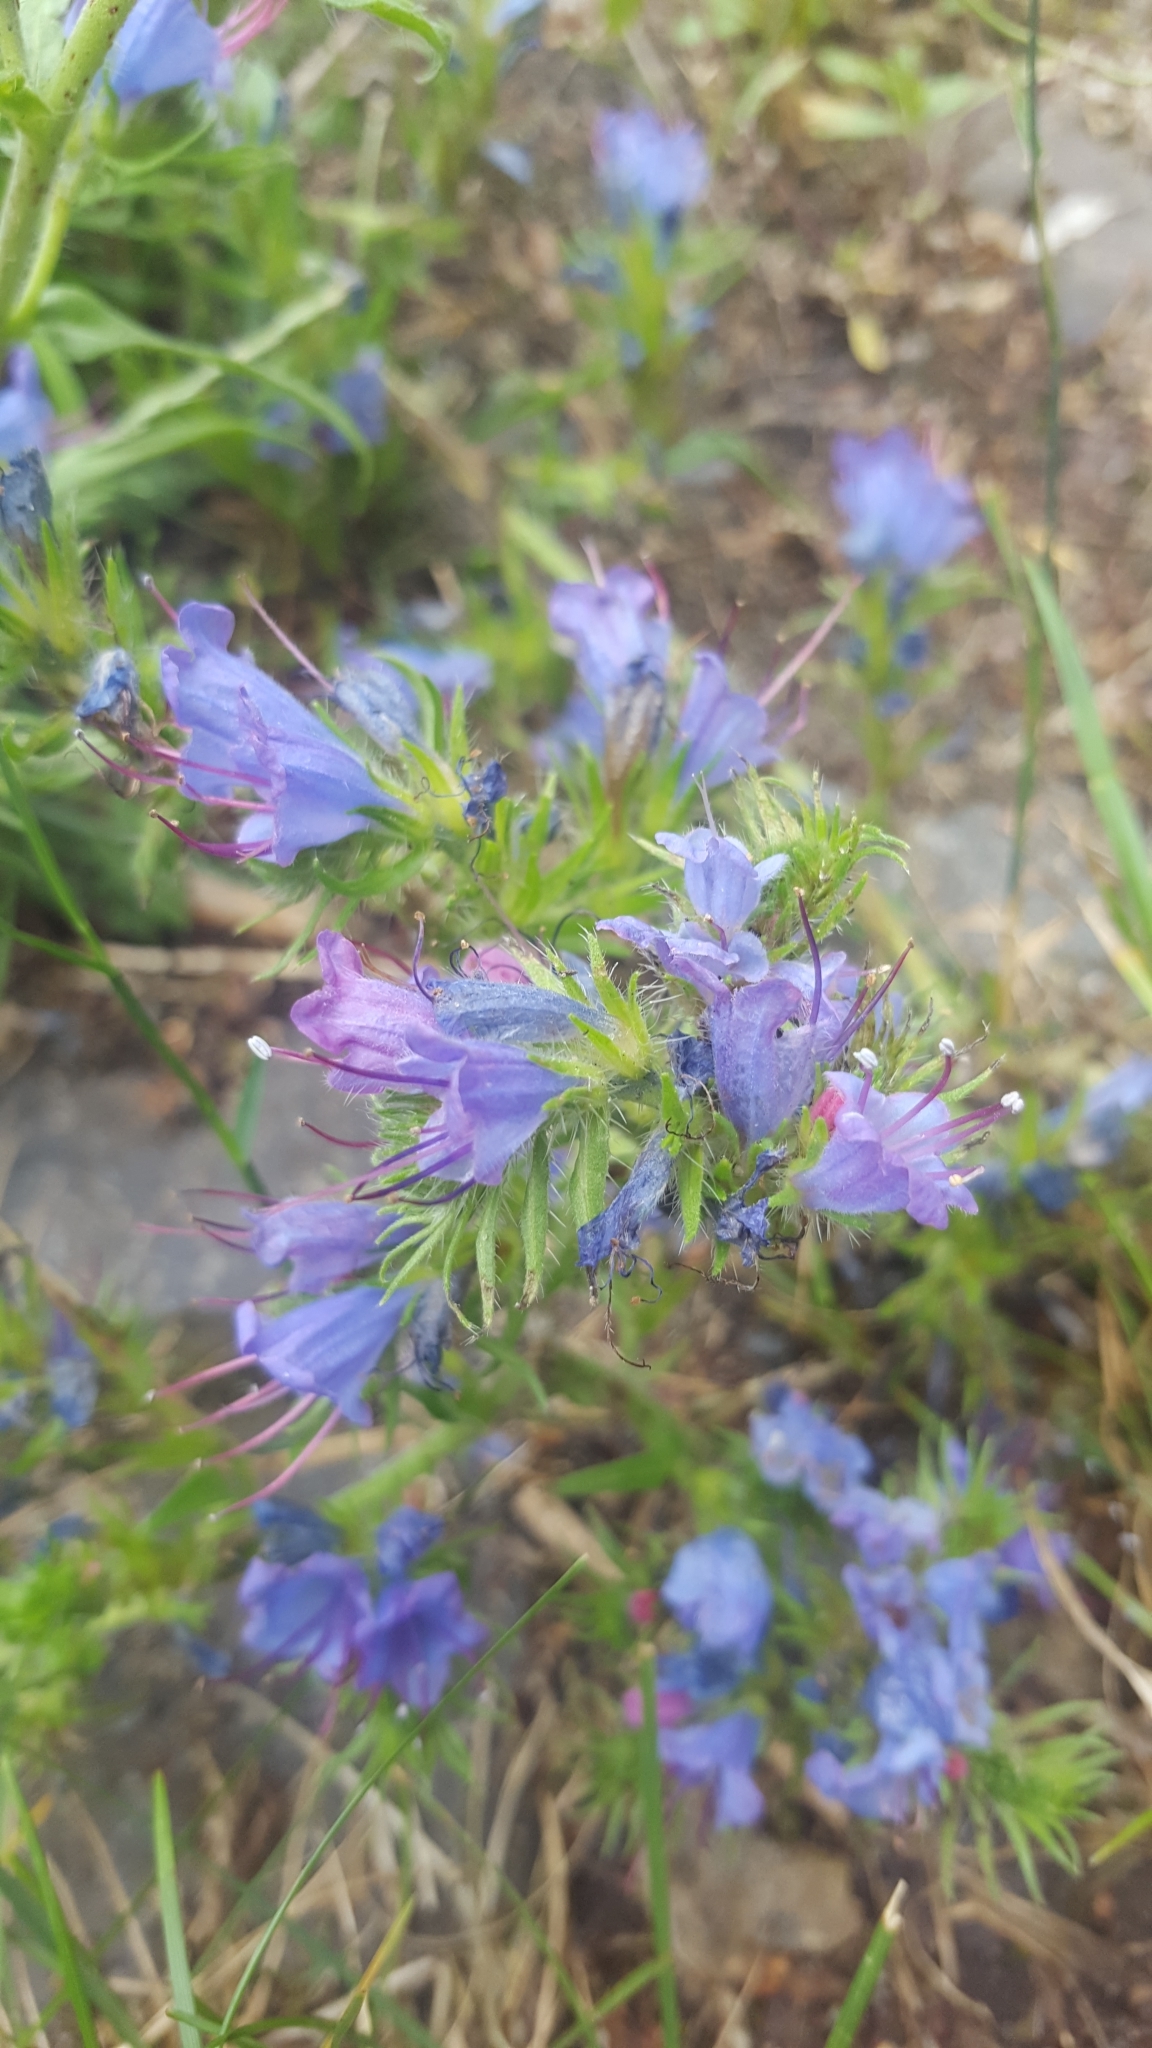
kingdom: Plantae
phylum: Tracheophyta
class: Magnoliopsida
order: Boraginales
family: Boraginaceae
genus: Echium
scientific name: Echium vulgare
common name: Common viper's bugloss
